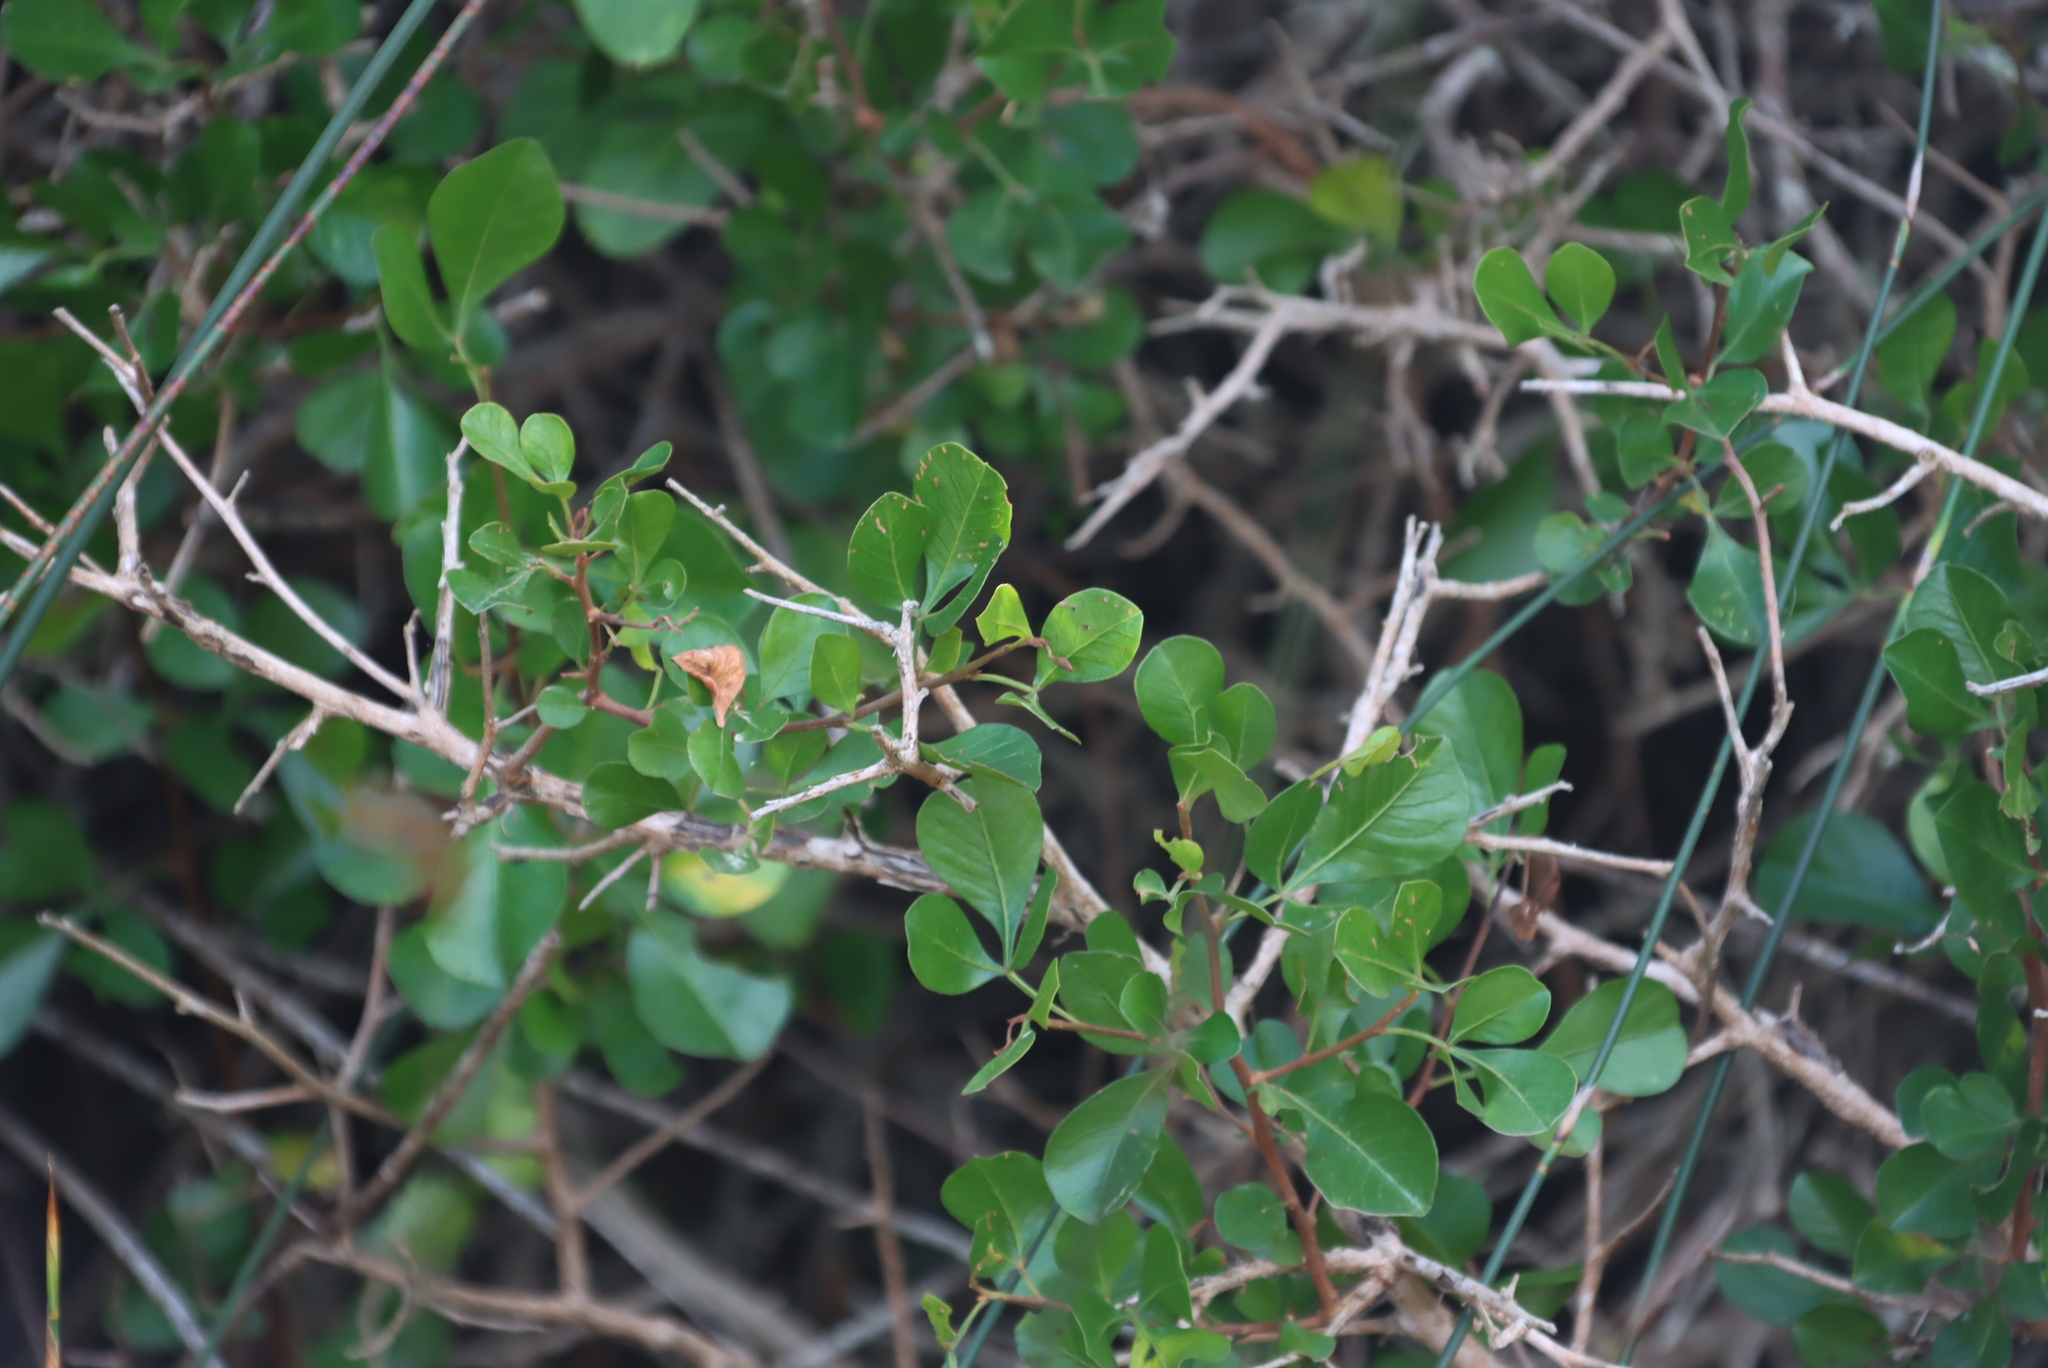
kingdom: Plantae
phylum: Tracheophyta
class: Magnoliopsida
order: Sapindales
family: Anacardiaceae
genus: Searsia
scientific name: Searsia glauca
